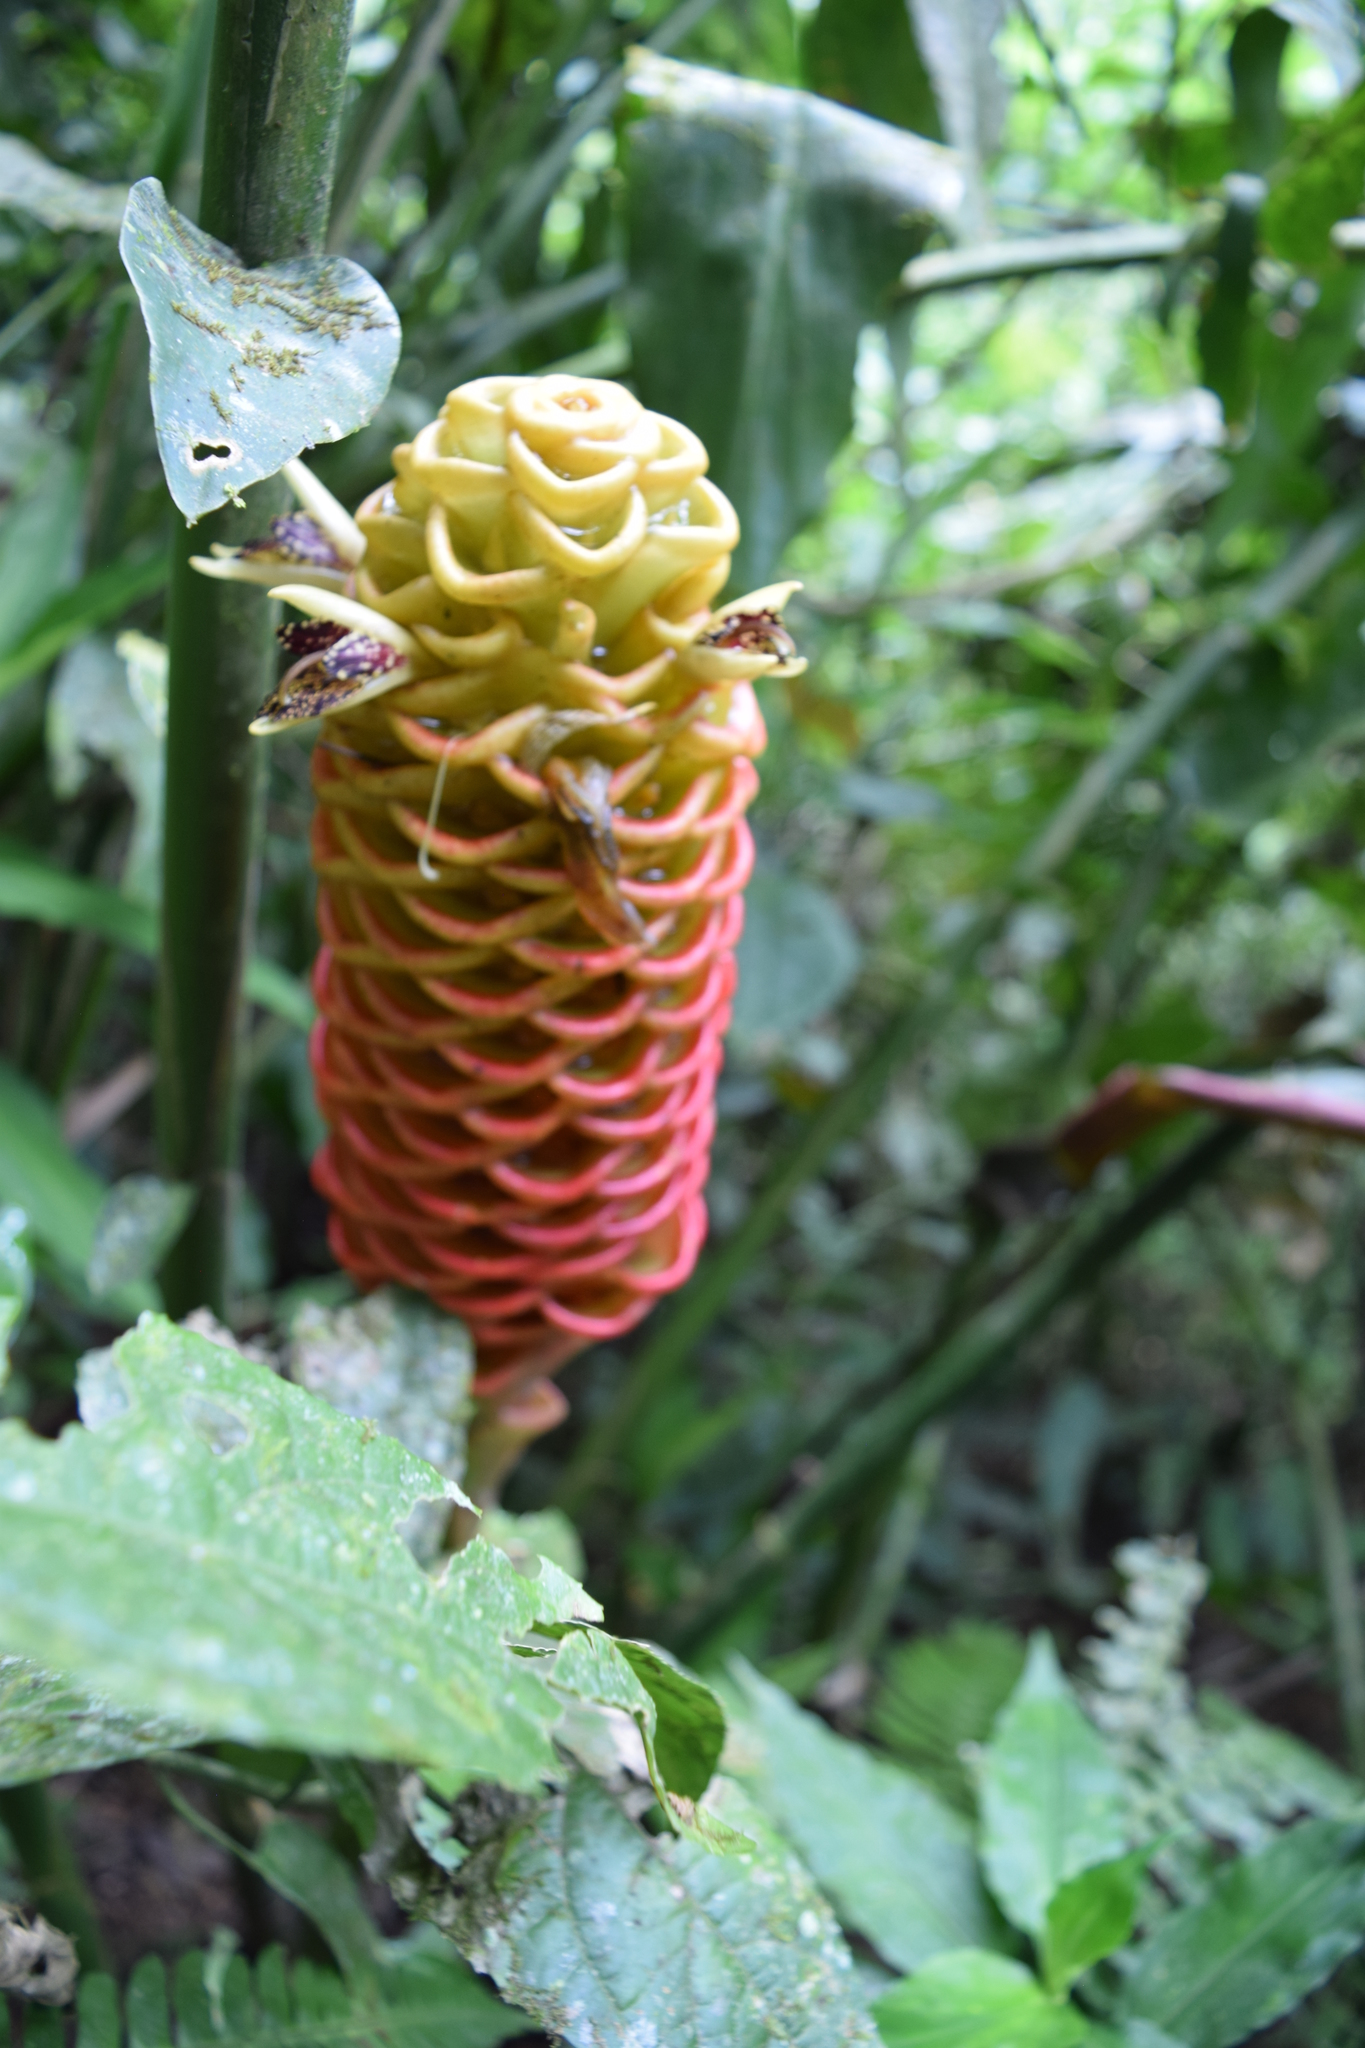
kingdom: Plantae
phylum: Tracheophyta
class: Liliopsida
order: Zingiberales
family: Zingiberaceae
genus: Zingiber
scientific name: Zingiber spectabile
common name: Beehive ginger
